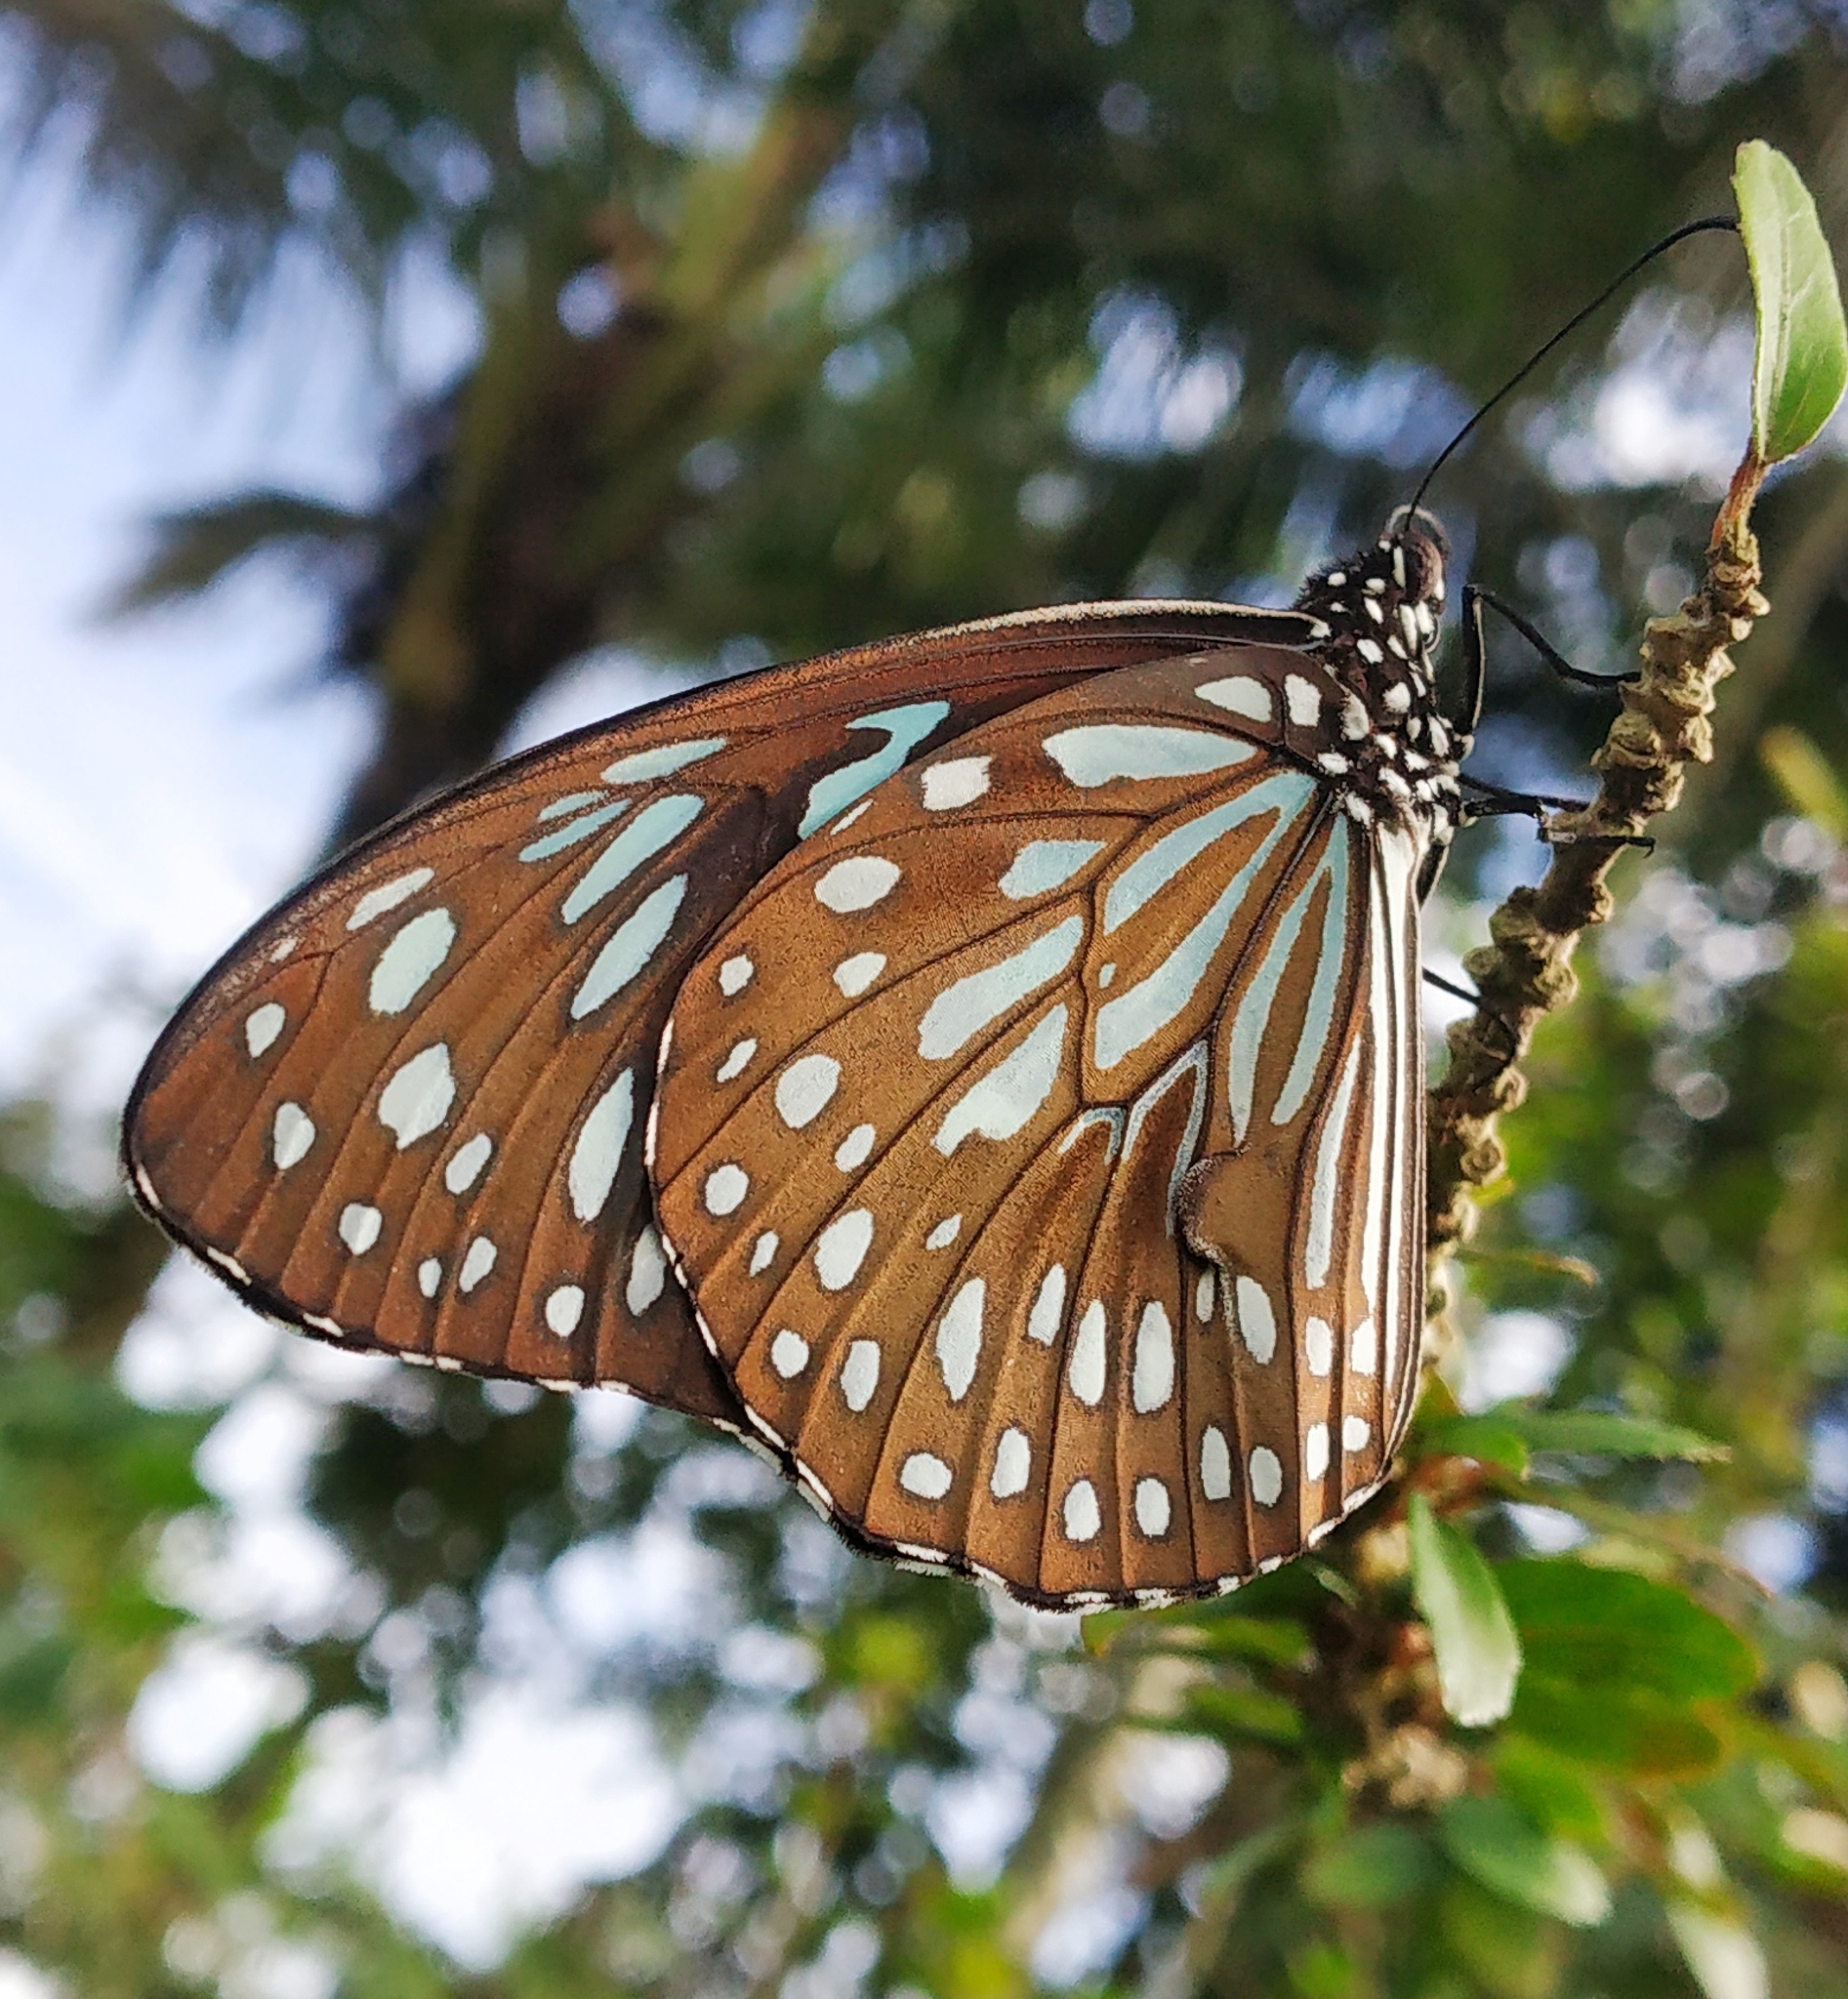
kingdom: Animalia
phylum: Arthropoda
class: Insecta
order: Lepidoptera
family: Nymphalidae
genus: Tirumala
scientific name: Tirumala septentrionis
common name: Dark blue tiger butterfly
